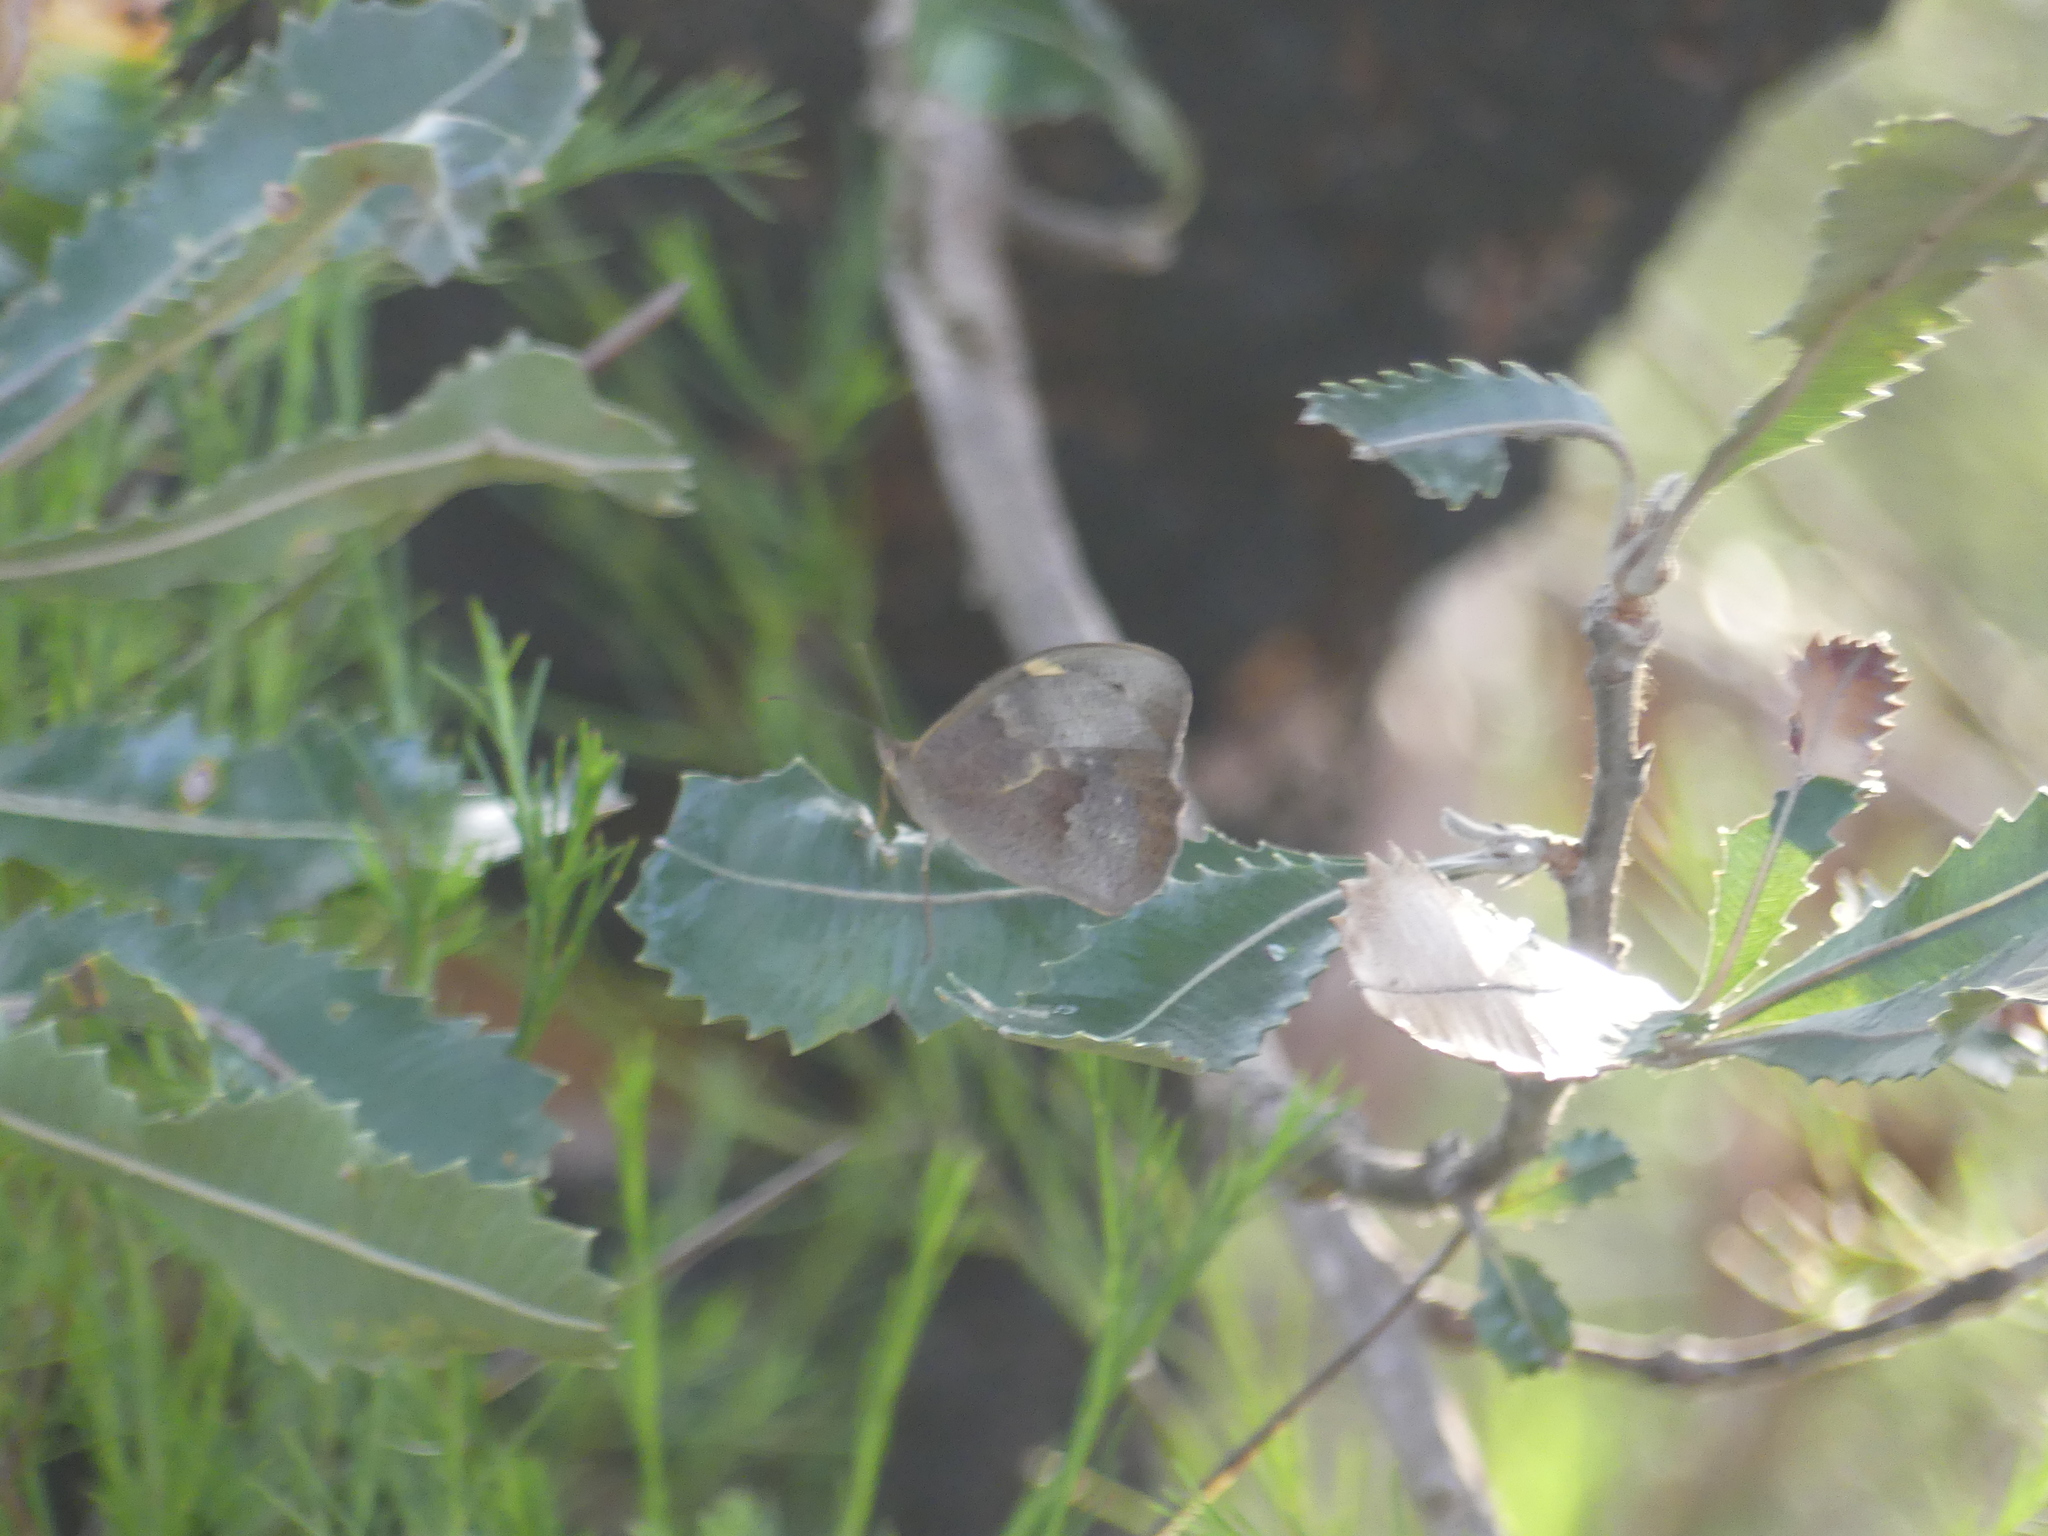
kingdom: Animalia
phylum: Arthropoda
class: Insecta
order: Lepidoptera
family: Nymphalidae
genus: Heteronympha
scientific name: Heteronympha merope
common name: Common brown
